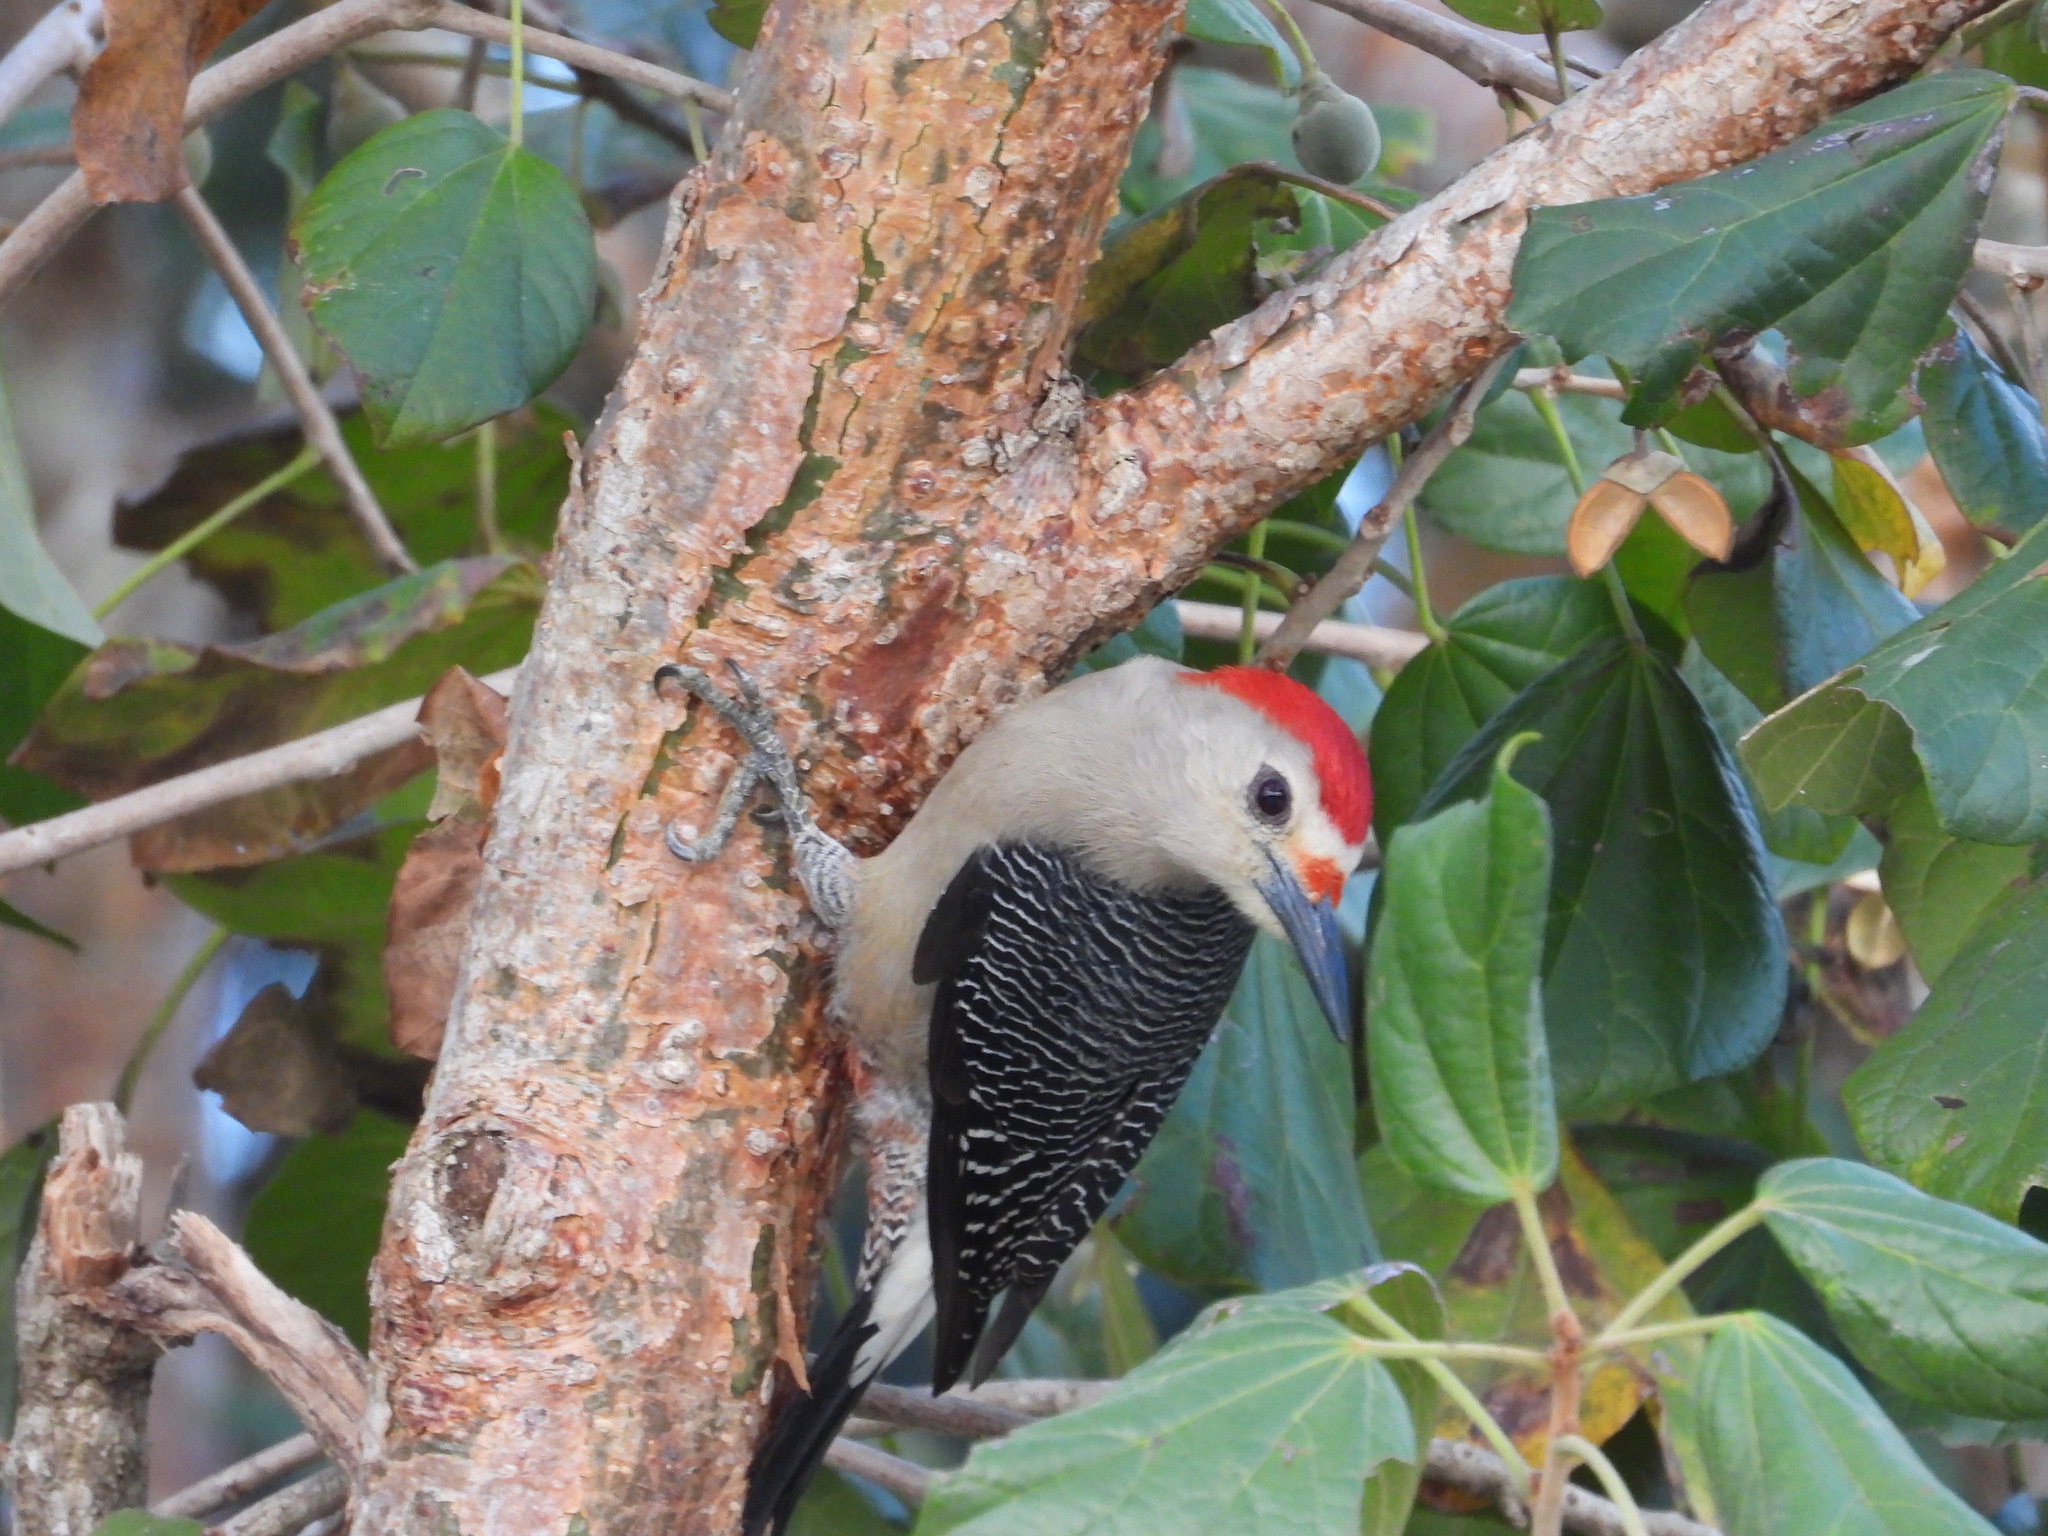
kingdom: Animalia
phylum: Chordata
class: Aves
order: Piciformes
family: Picidae
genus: Melanerpes
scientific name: Melanerpes aurifrons
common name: Golden-fronted woodpecker
